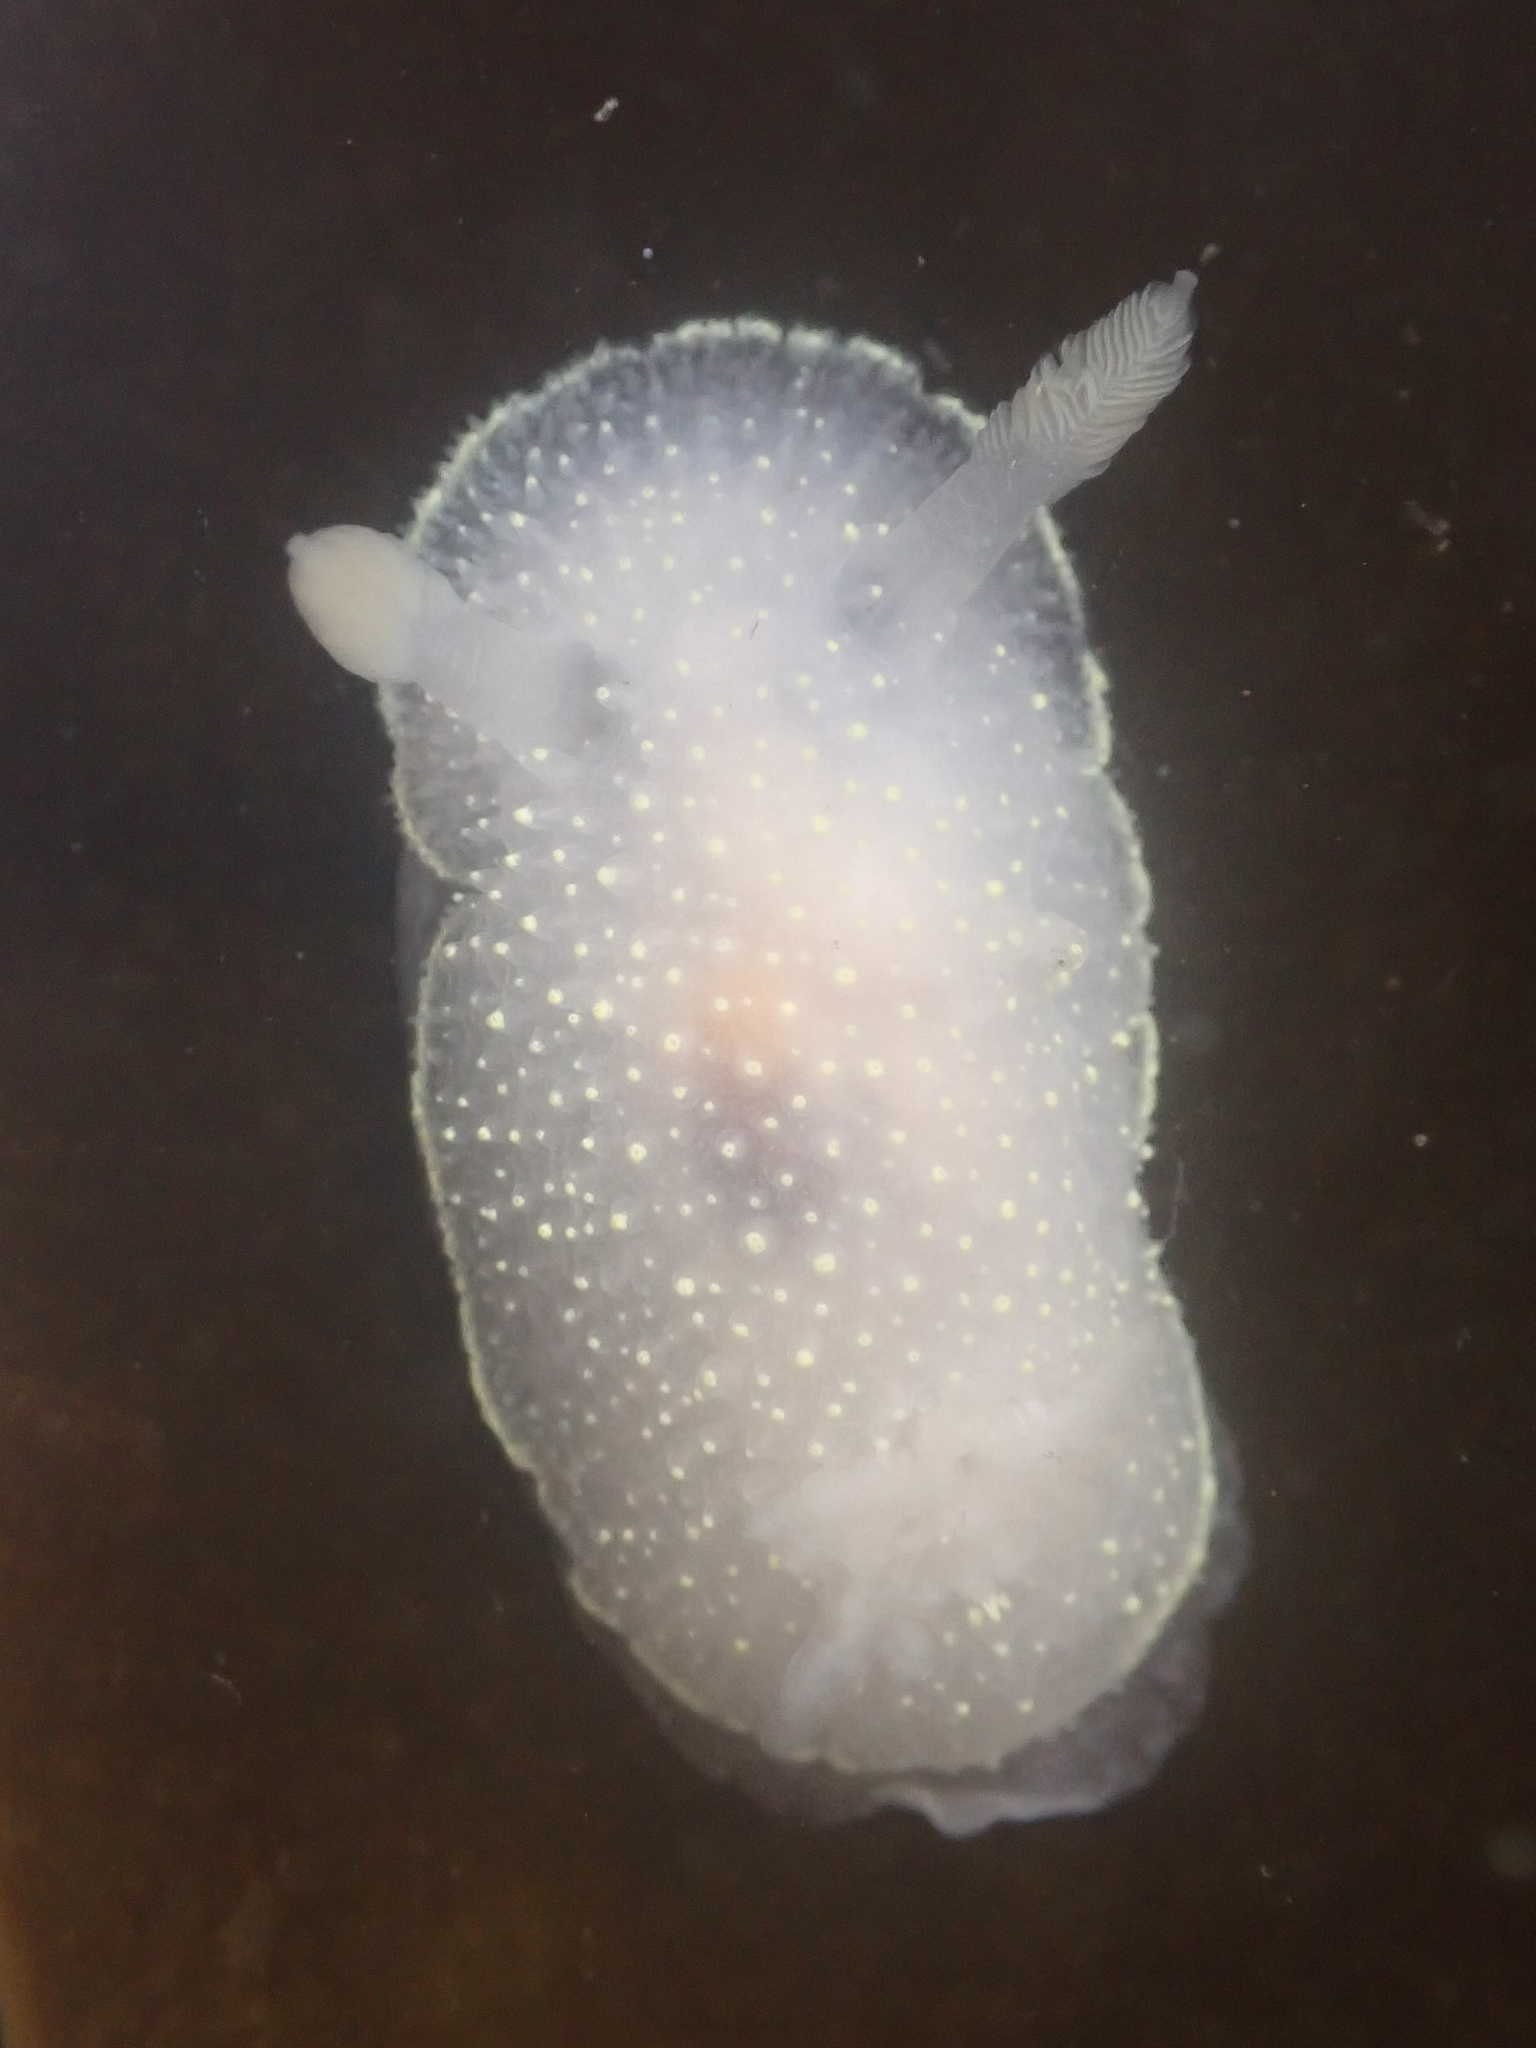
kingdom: Animalia
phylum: Mollusca
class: Gastropoda
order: Nudibranchia
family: Onchidorididae
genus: Acanthodoris
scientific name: Acanthodoris hudsoni
